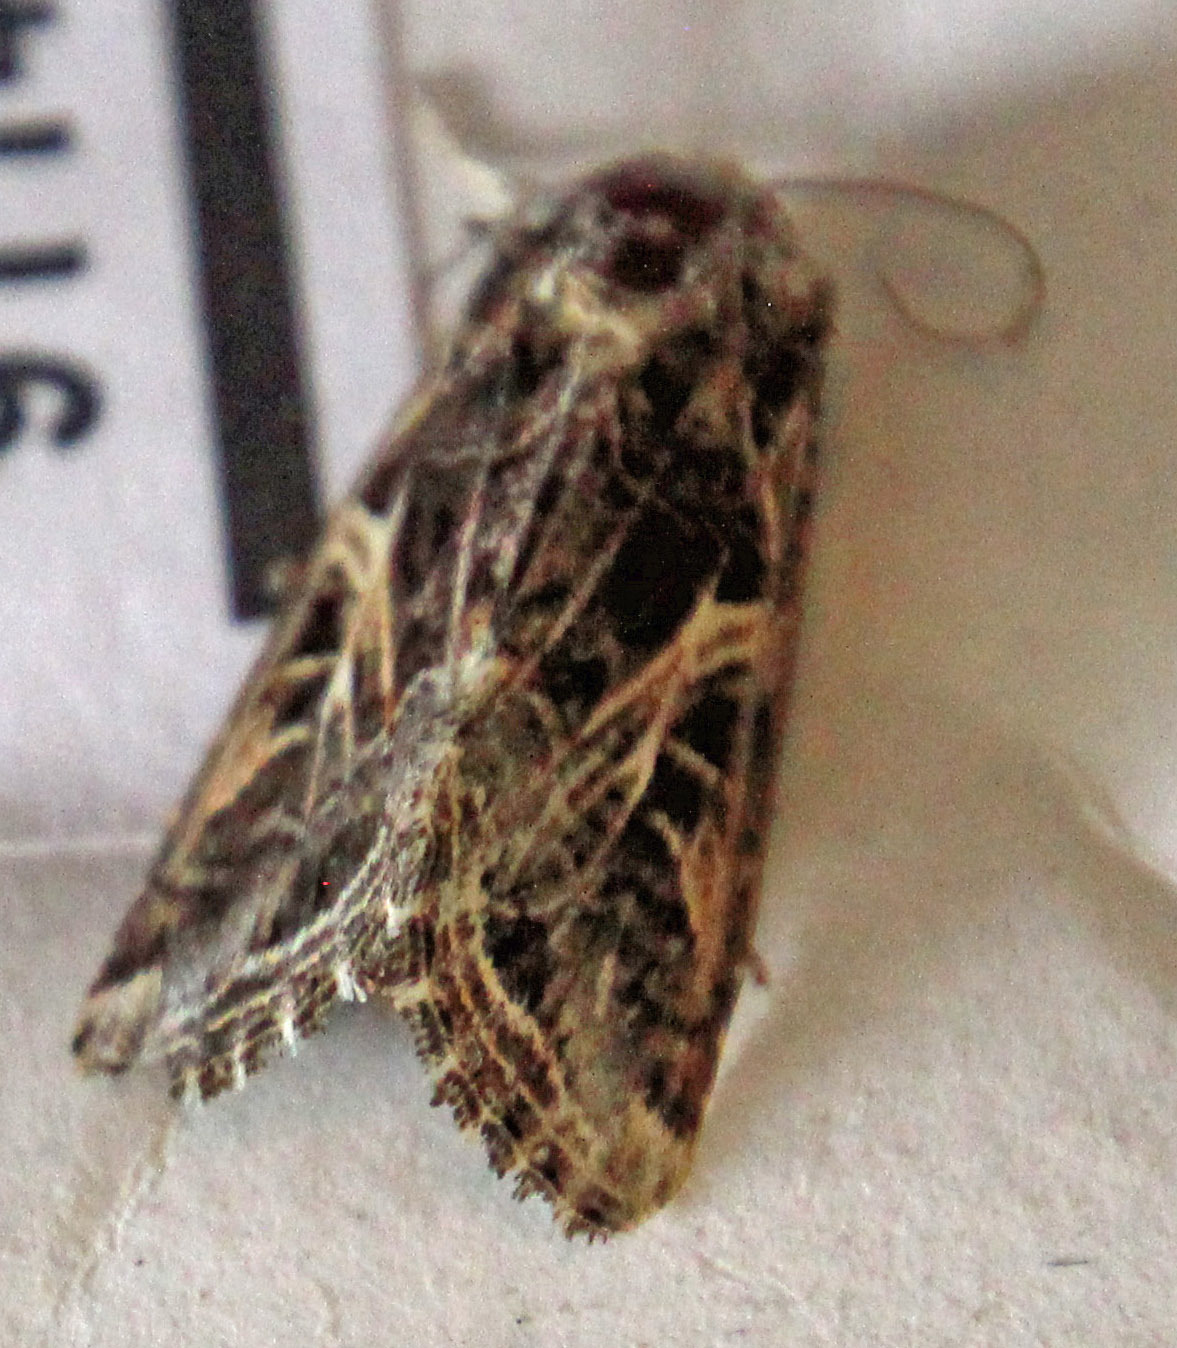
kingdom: Animalia
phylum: Arthropoda
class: Insecta
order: Lepidoptera
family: Noctuidae
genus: Spodoptera
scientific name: Spodoptera ornithogalli
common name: Yellow-striped armyworm
